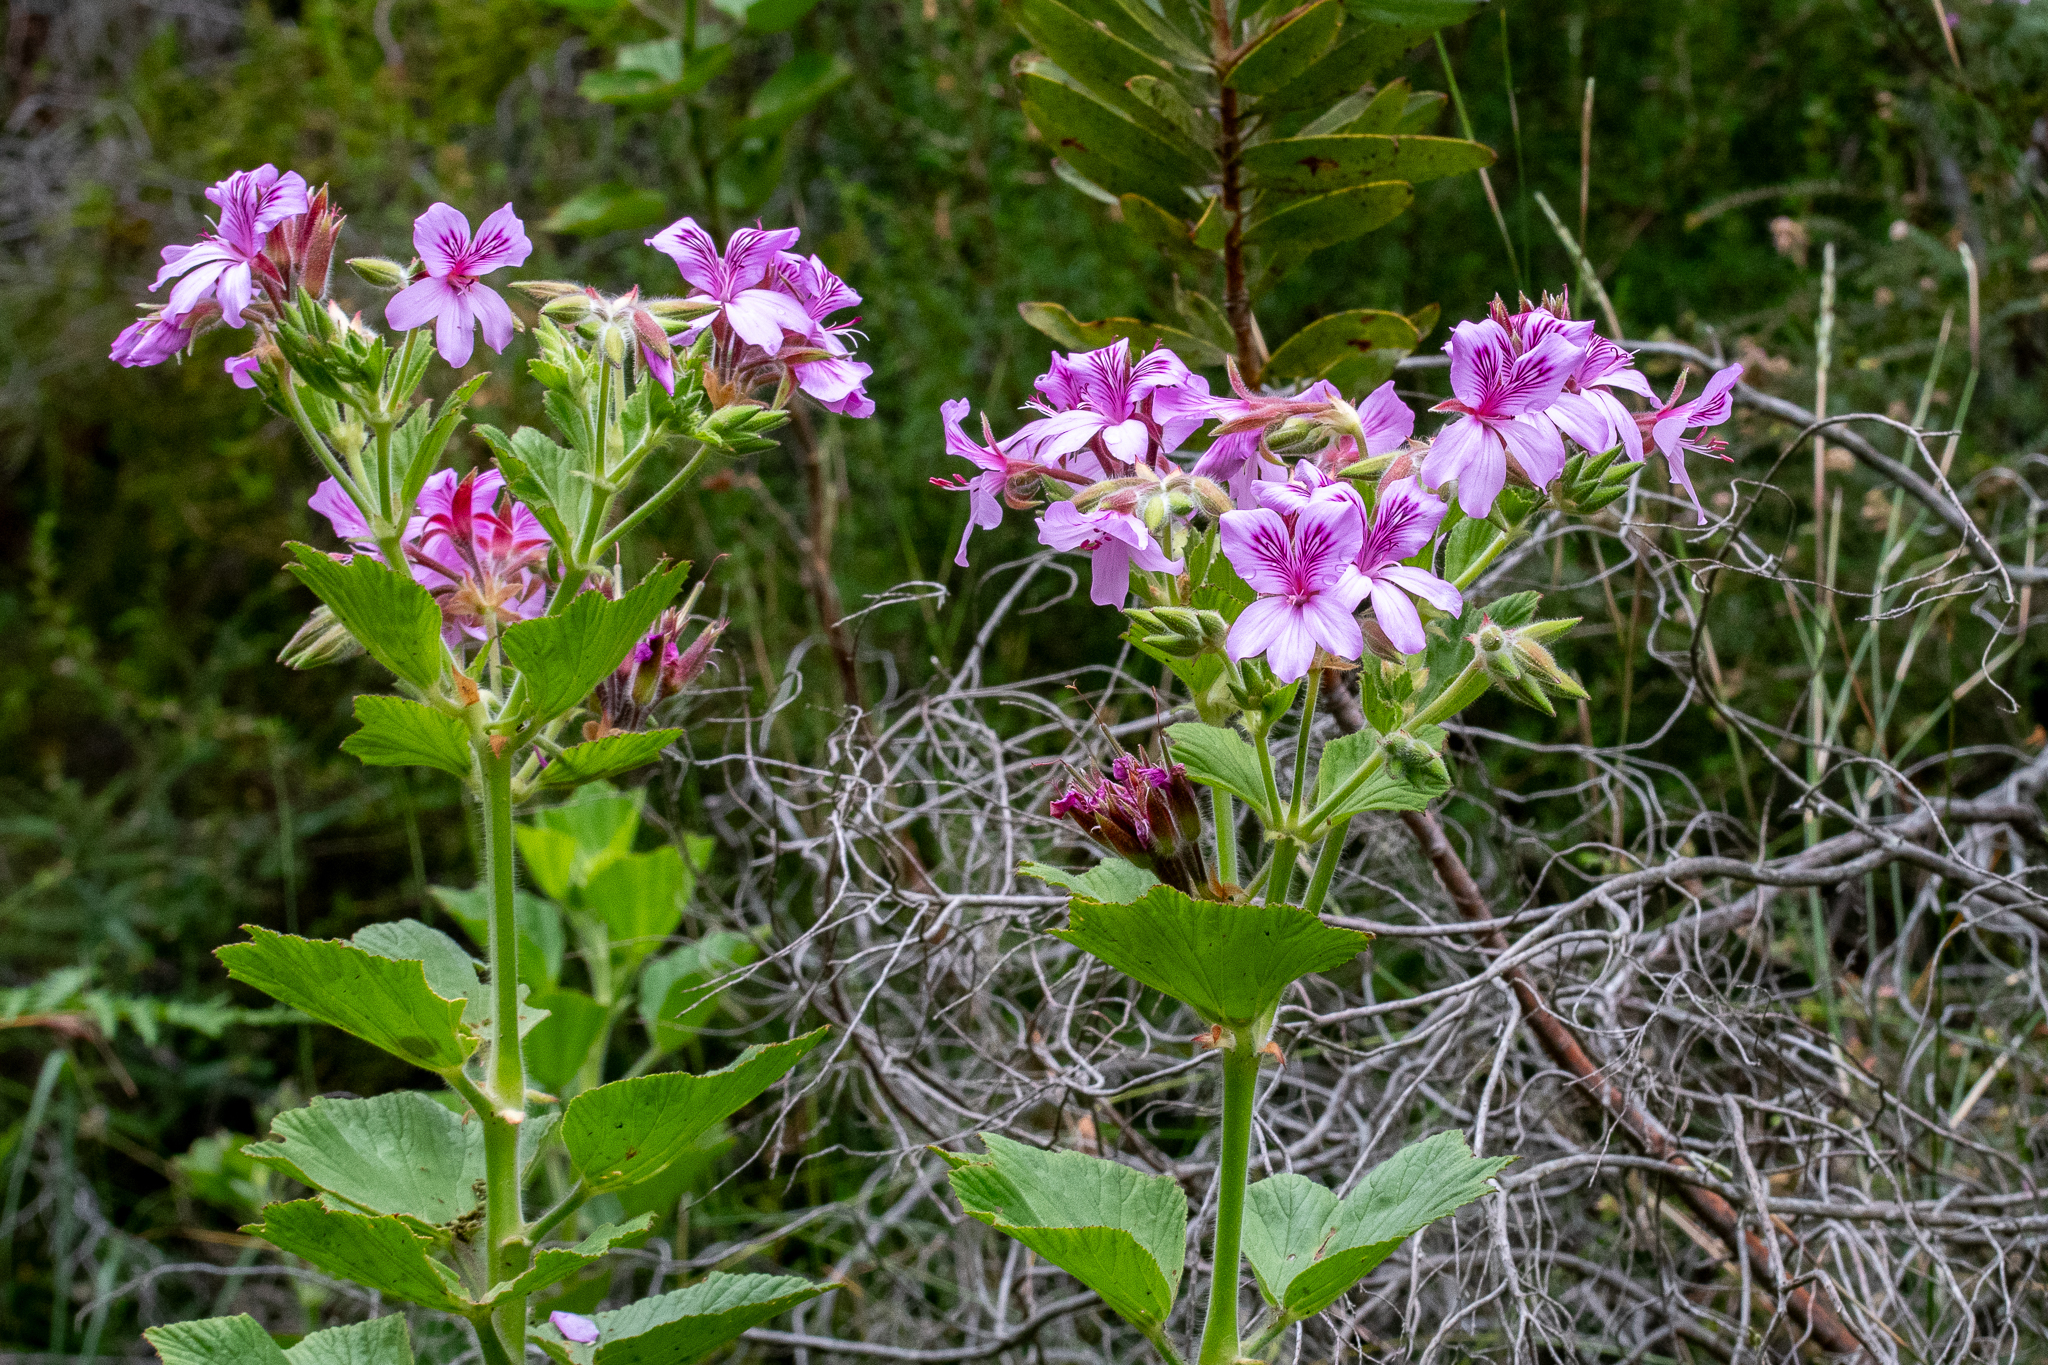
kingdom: Plantae
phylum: Tracheophyta
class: Magnoliopsida
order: Geraniales
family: Geraniaceae
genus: Pelargonium
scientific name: Pelargonium cucullatum
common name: Tree pelargonium
